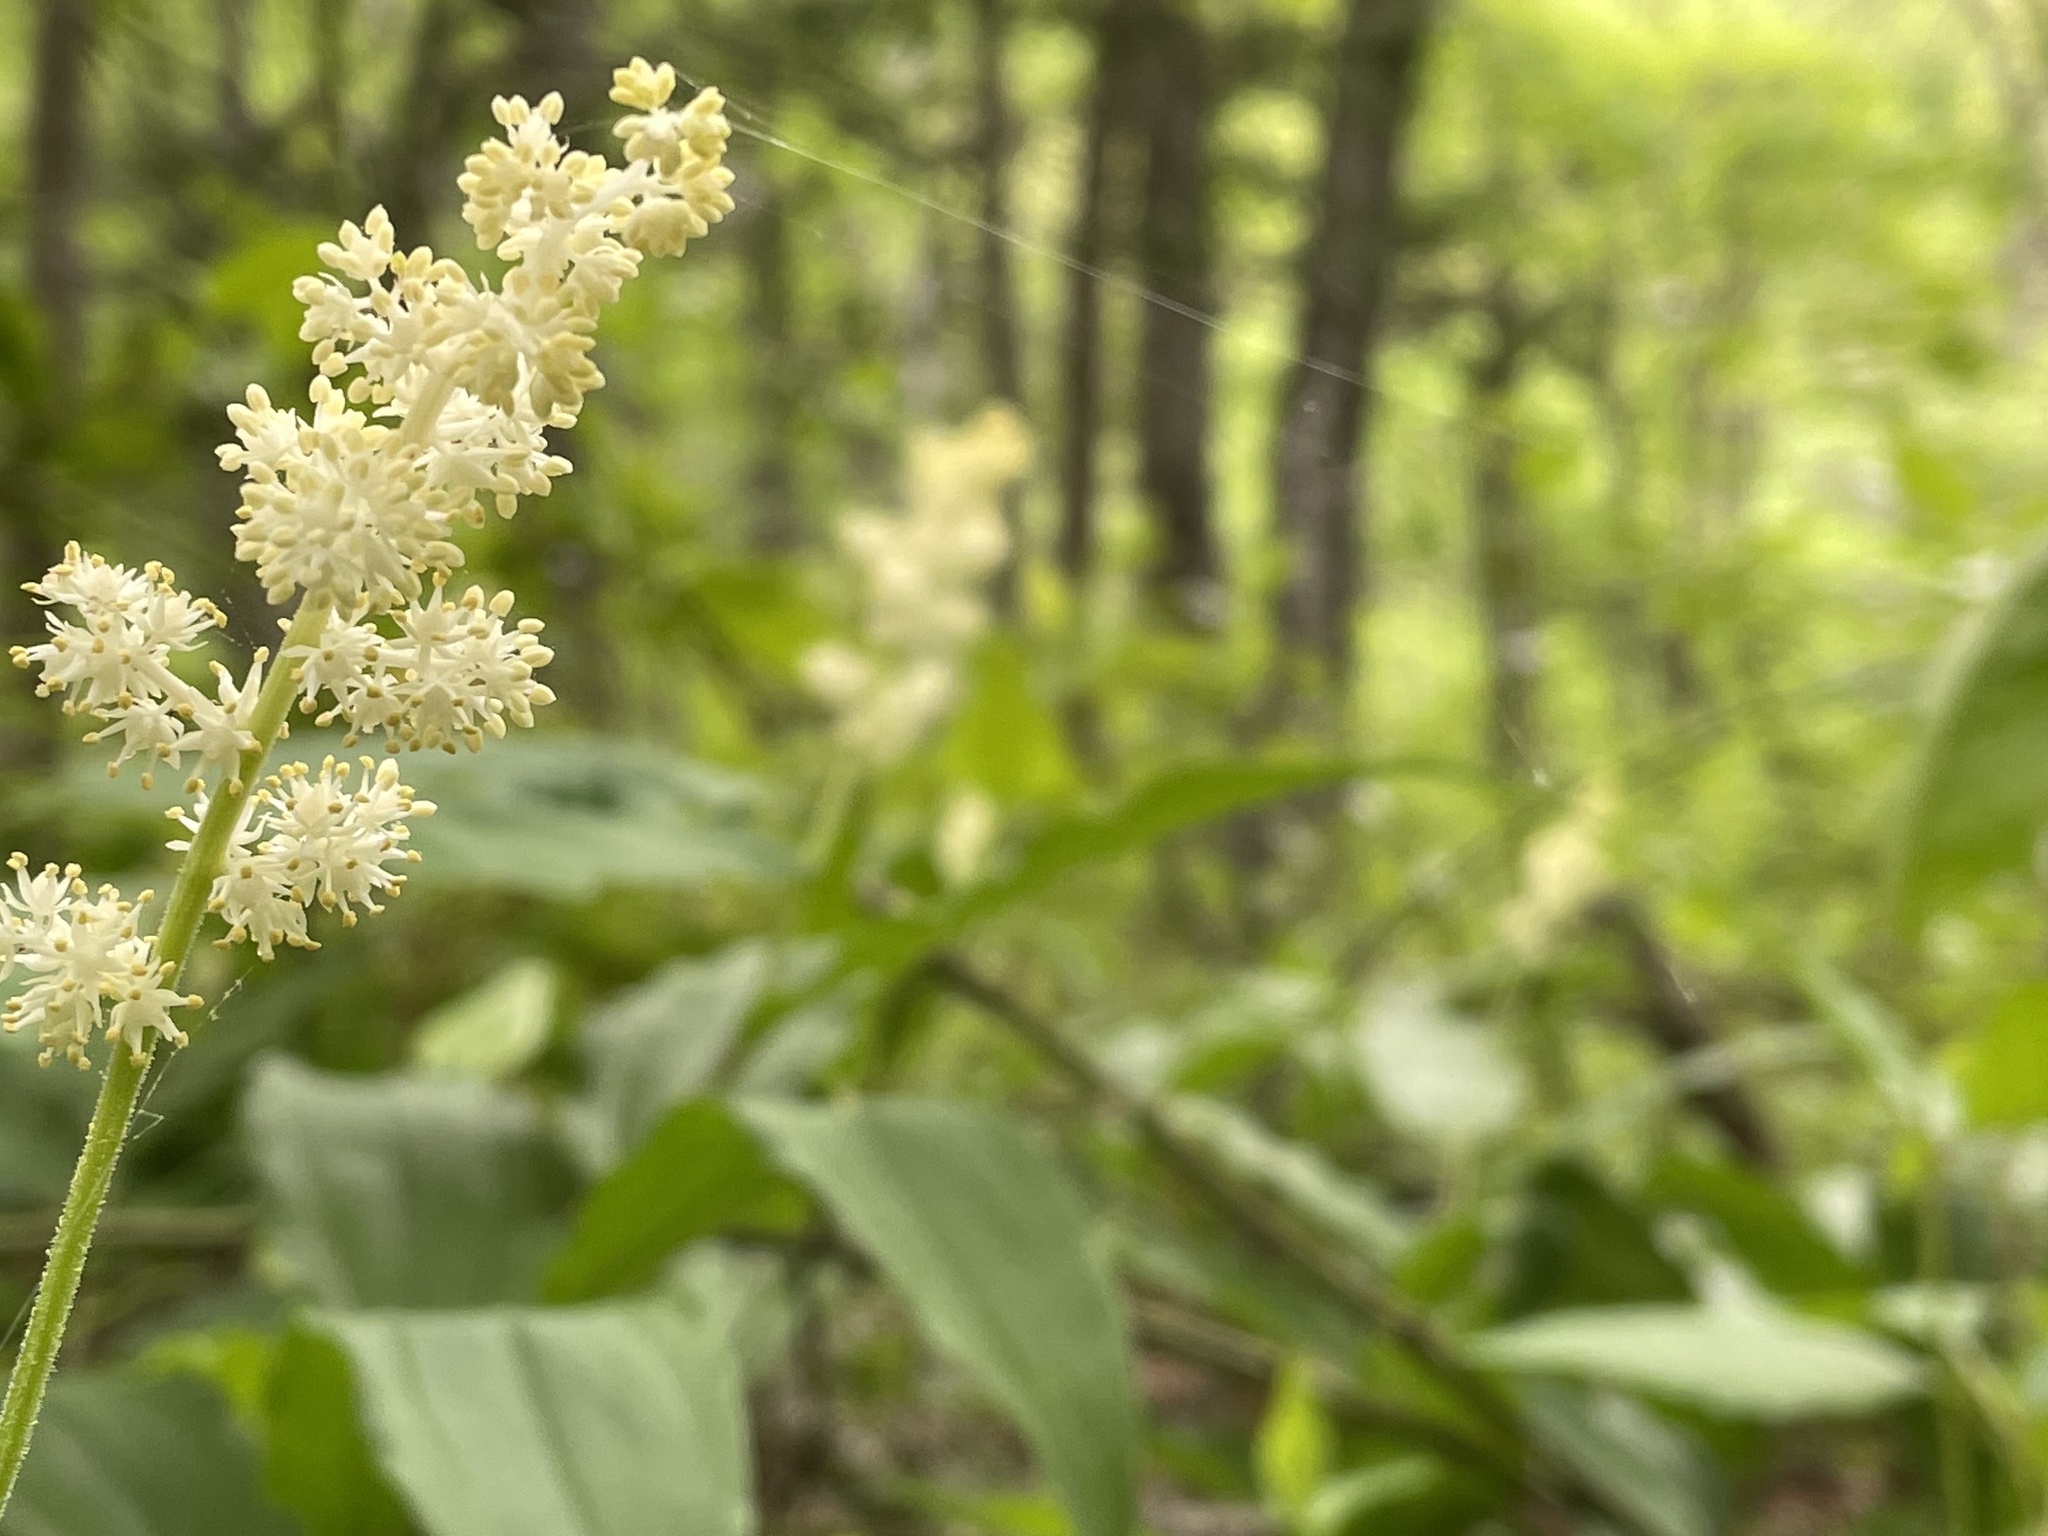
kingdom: Plantae
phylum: Tracheophyta
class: Liliopsida
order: Asparagales
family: Asparagaceae
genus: Maianthemum
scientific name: Maianthemum racemosum
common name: False spikenard
